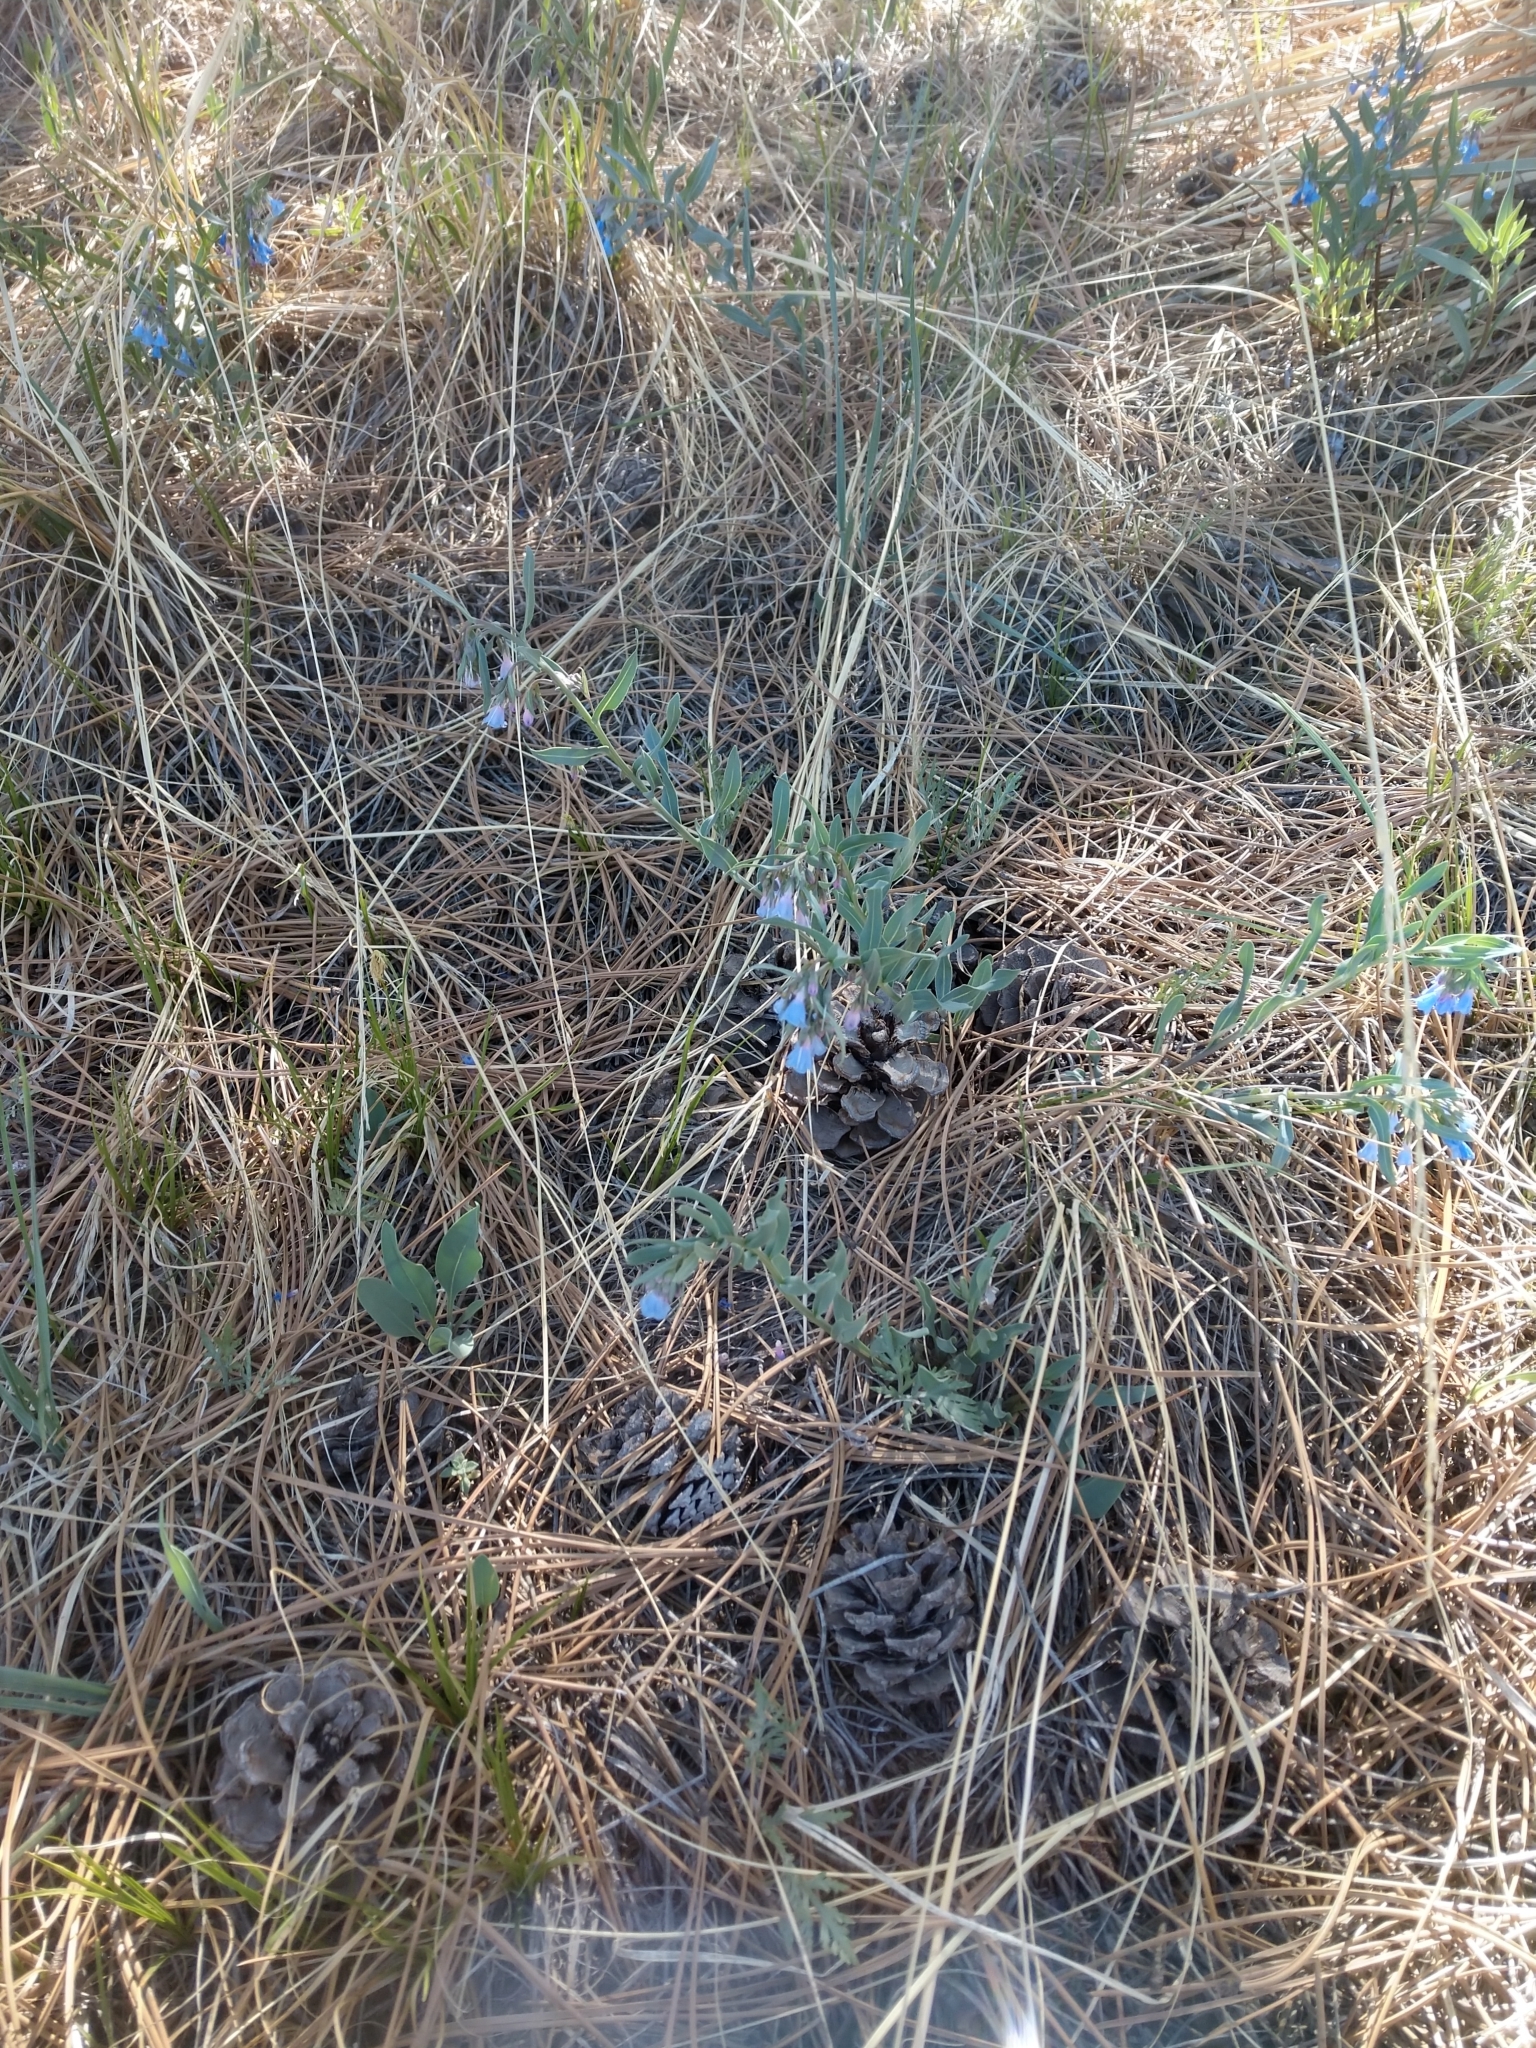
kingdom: Plantae
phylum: Tracheophyta
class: Magnoliopsida
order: Boraginales
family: Boraginaceae
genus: Mertensia
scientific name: Mertensia lanceolata
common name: Lance-leaved bluebells
